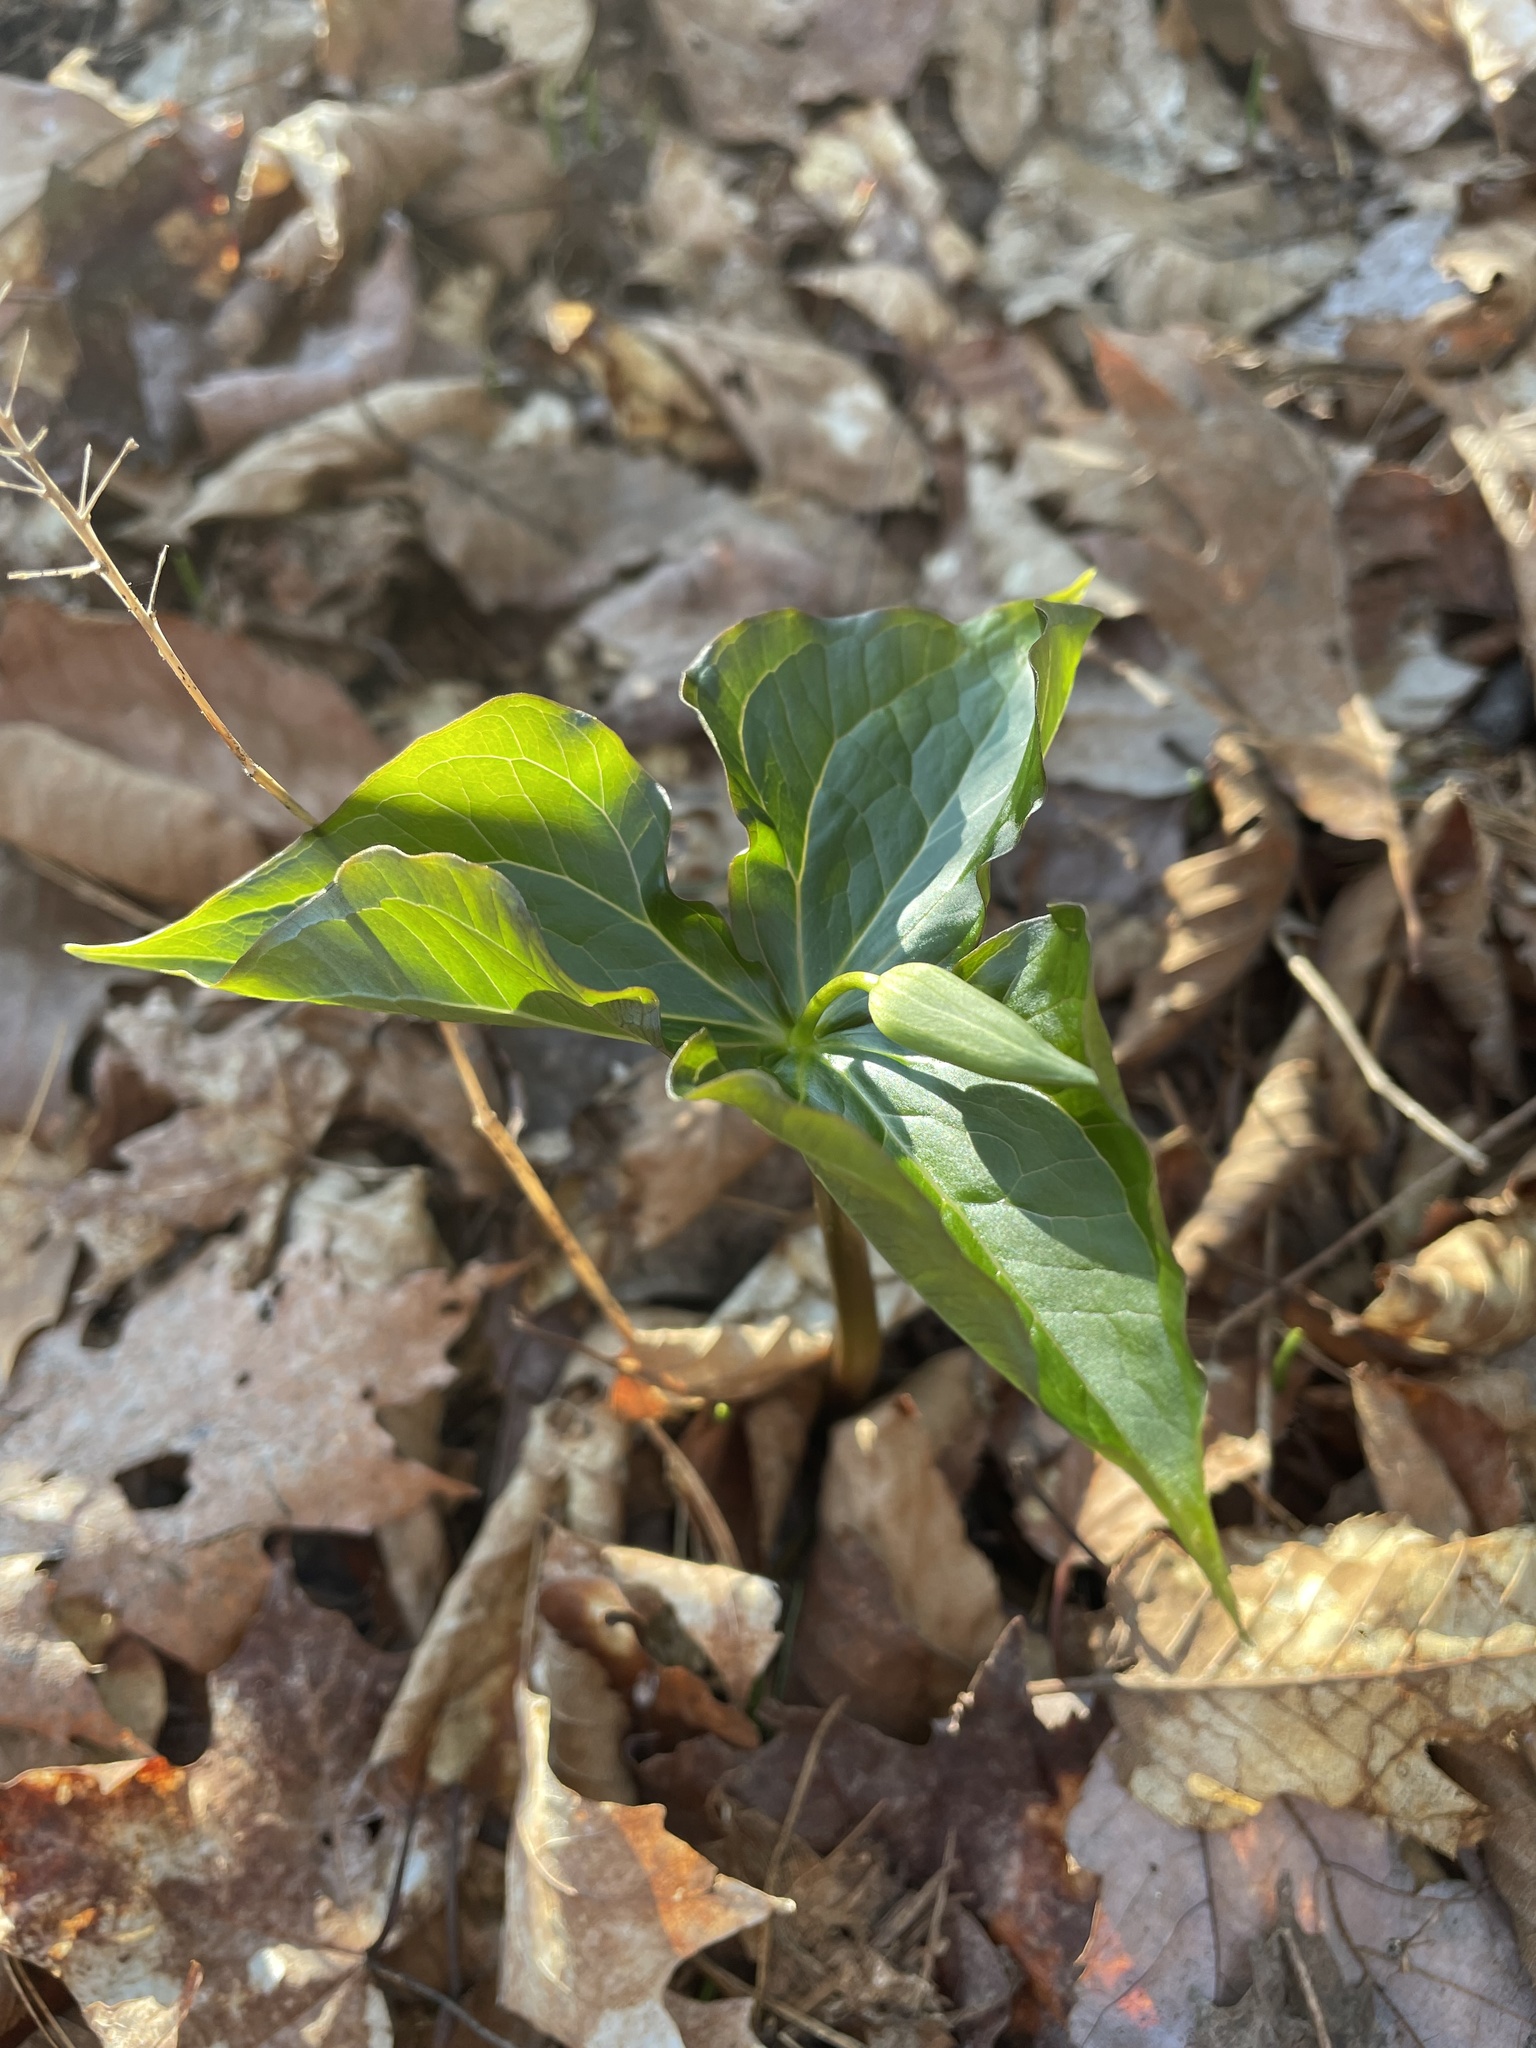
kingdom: Plantae
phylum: Tracheophyta
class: Liliopsida
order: Liliales
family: Melanthiaceae
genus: Trillium
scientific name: Trillium erectum
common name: Purple trillium
